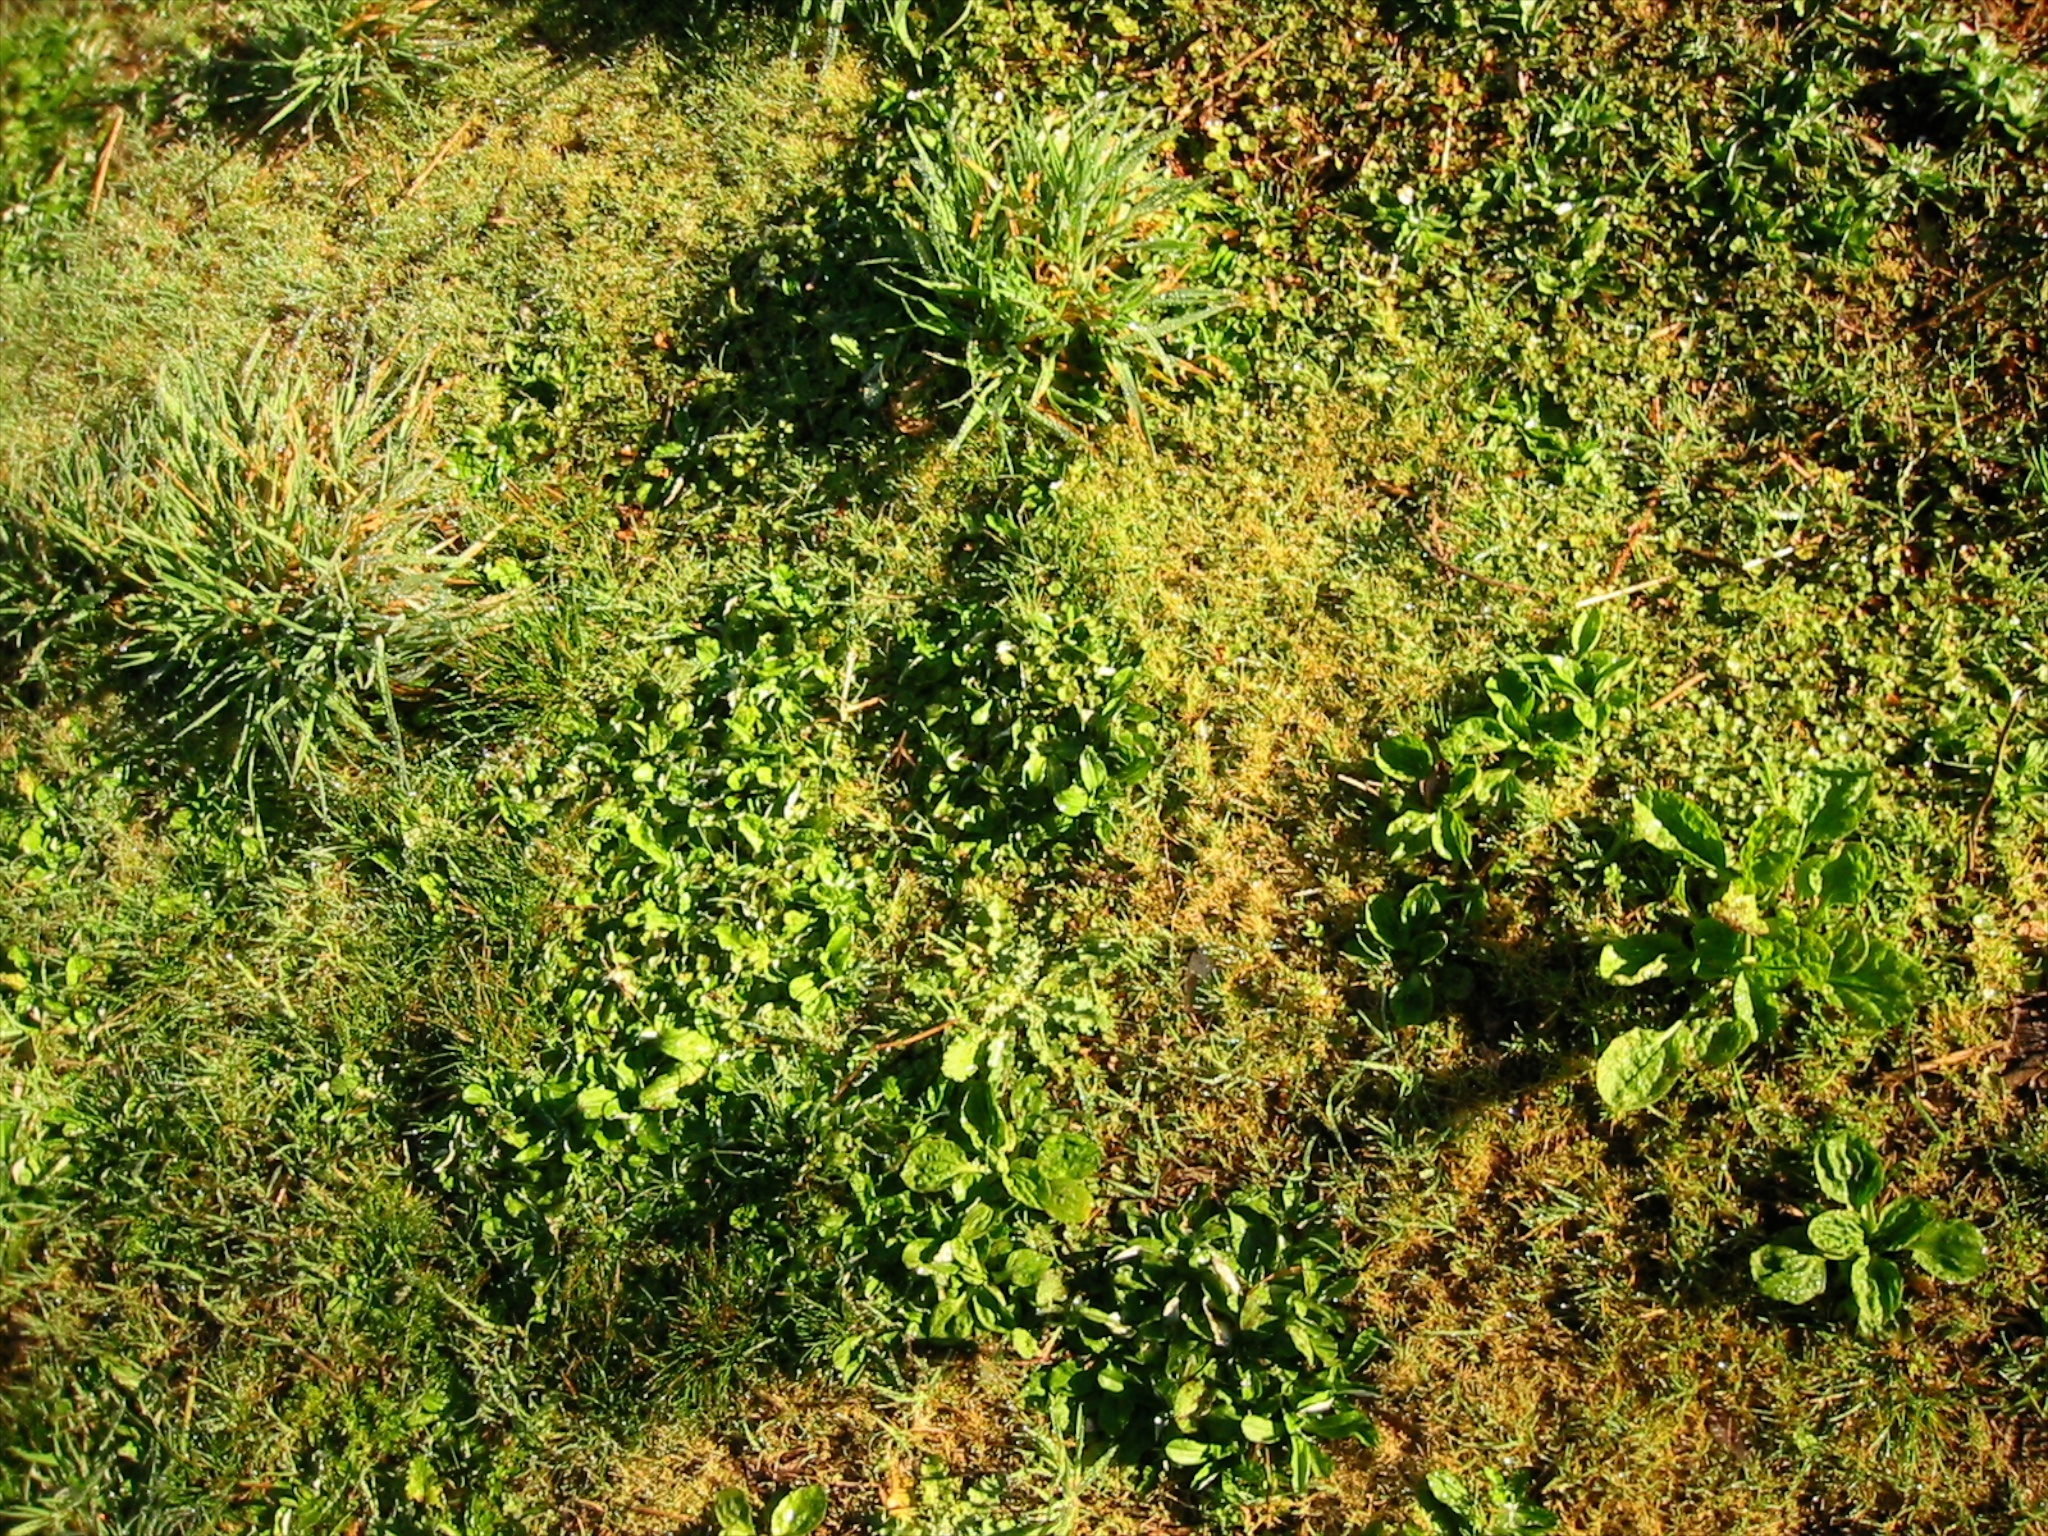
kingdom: Plantae
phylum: Tracheophyta
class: Magnoliopsida
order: Lamiales
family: Plantaginaceae
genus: Plantago
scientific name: Plantago major
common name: Common plantain
